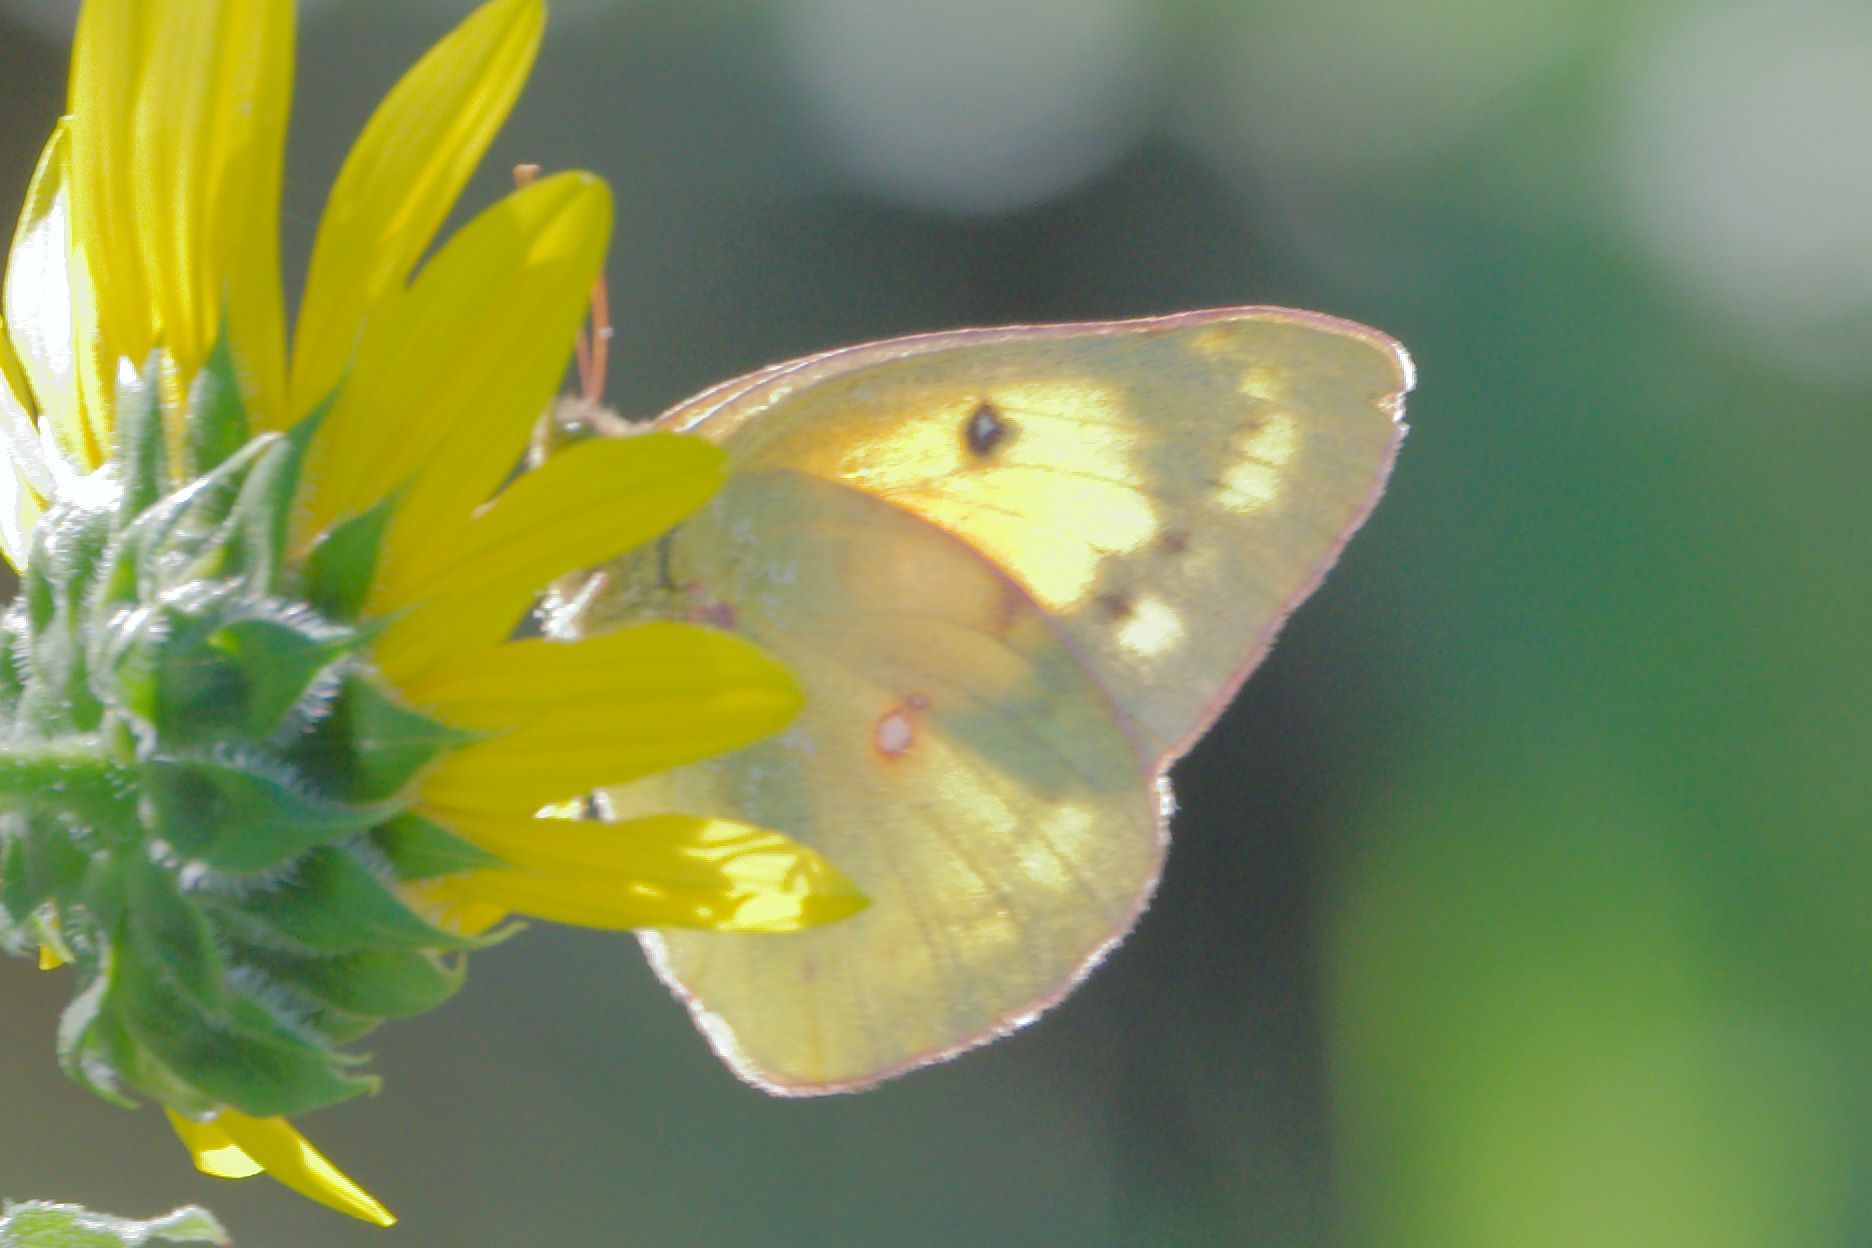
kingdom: Animalia
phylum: Arthropoda
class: Insecta
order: Lepidoptera
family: Pieridae
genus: Colias
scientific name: Colias eurytheme
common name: Alfalfa butterfly
